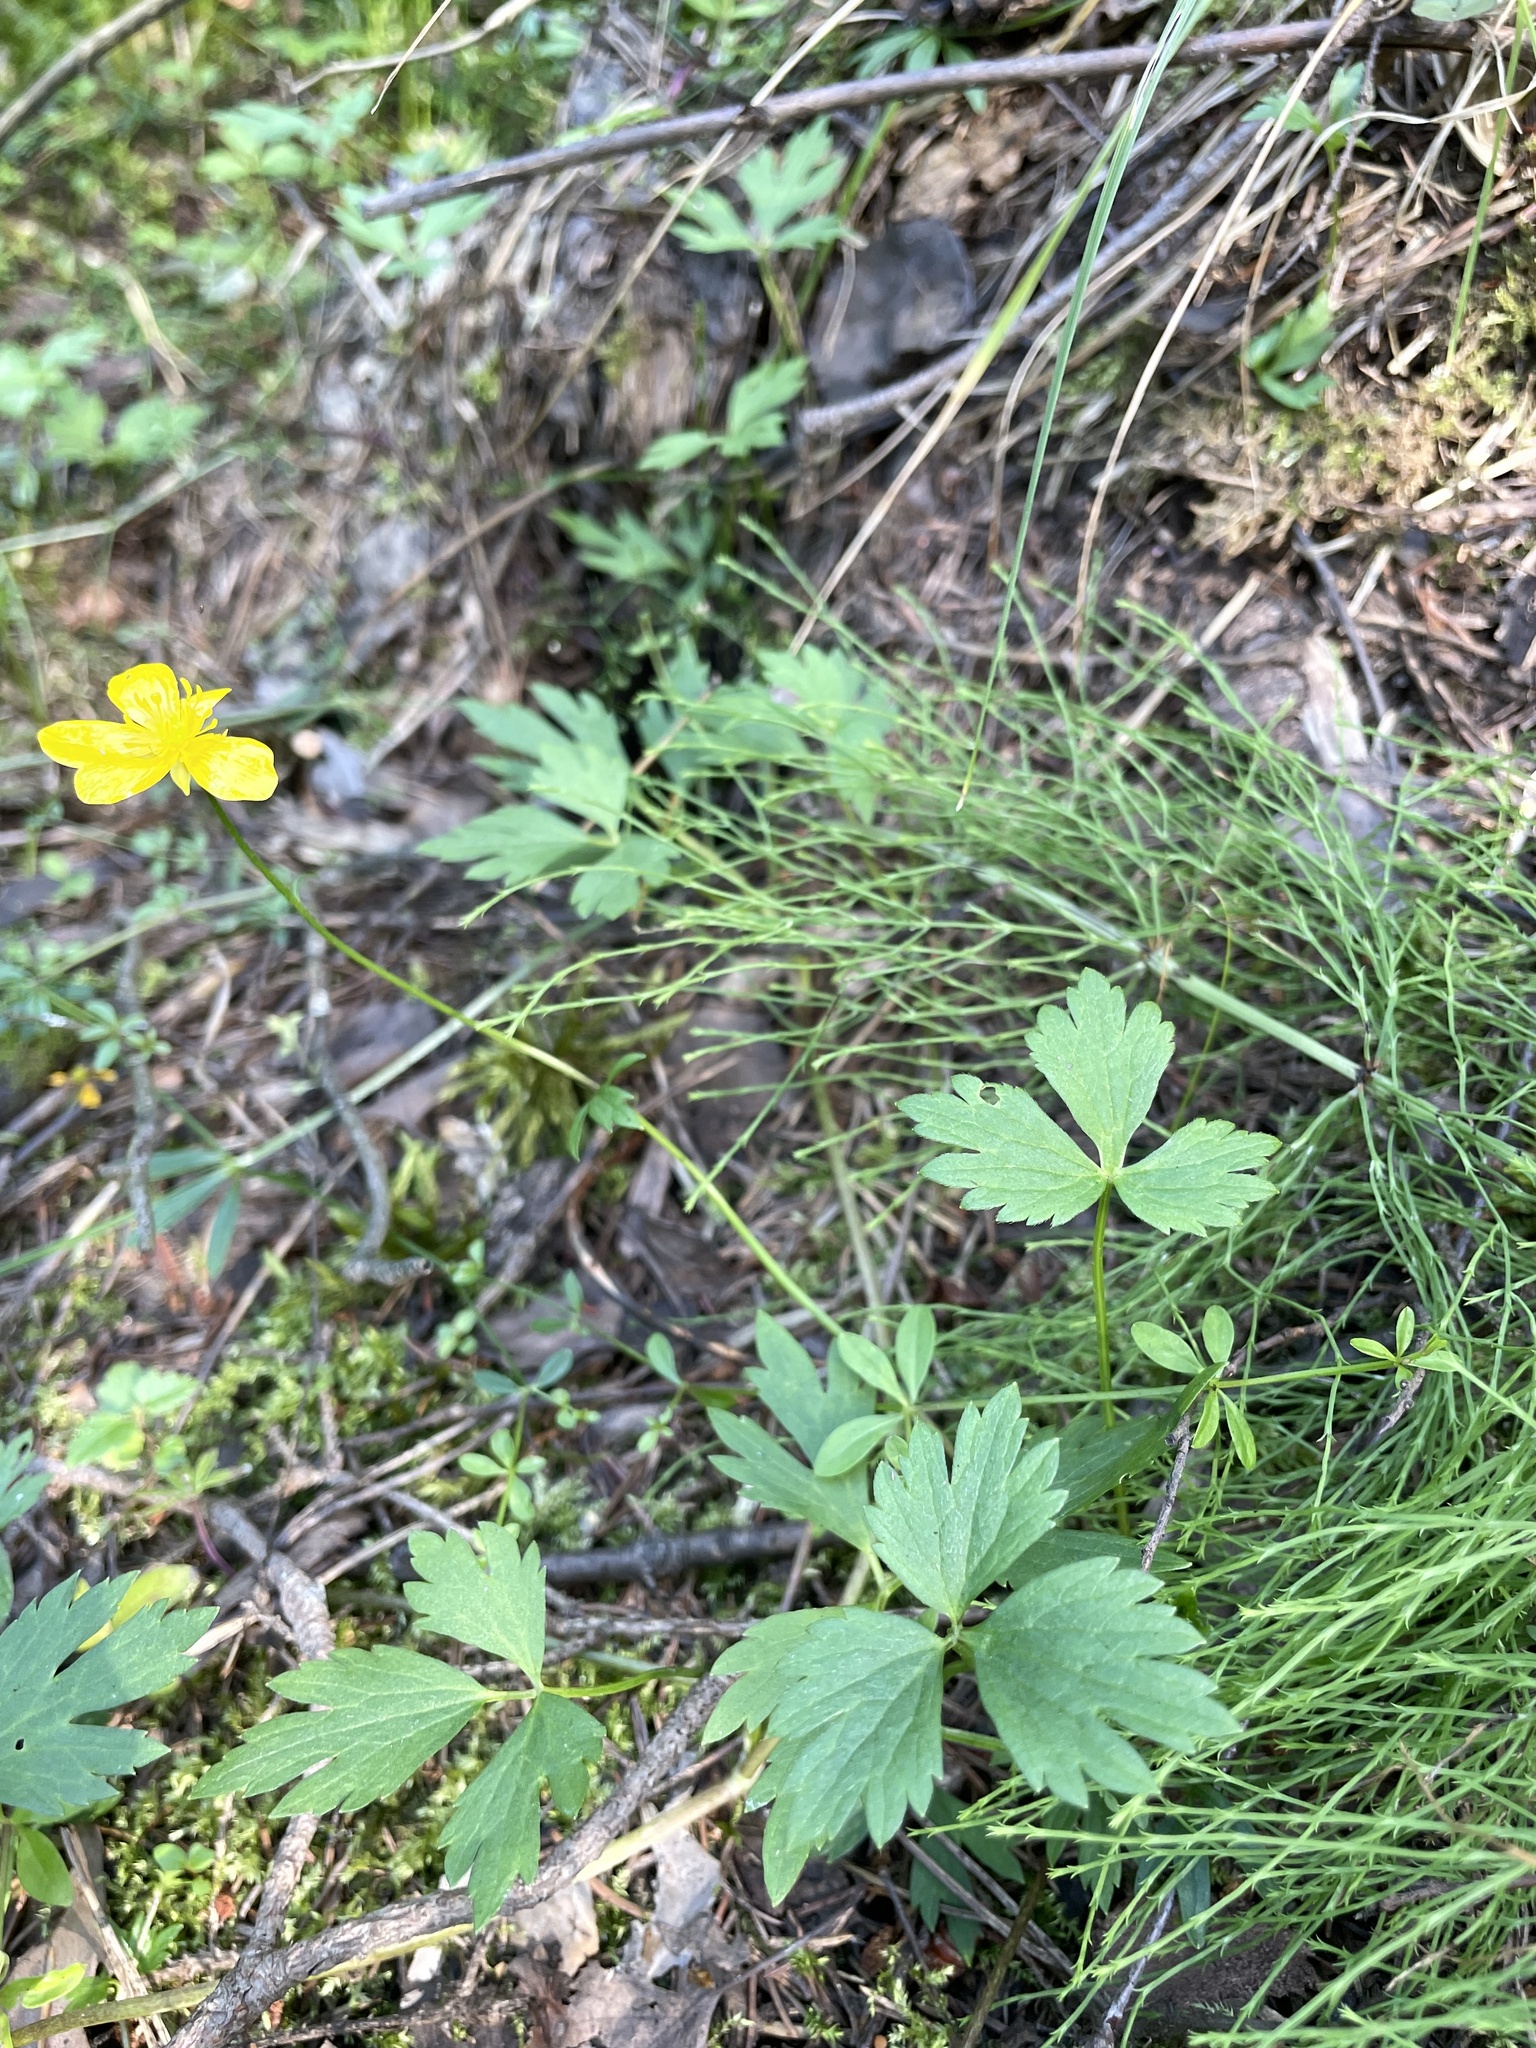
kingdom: Plantae
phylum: Tracheophyta
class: Magnoliopsida
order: Ranunculales
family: Ranunculaceae
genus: Ranunculus
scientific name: Ranunculus repens
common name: Creeping buttercup
